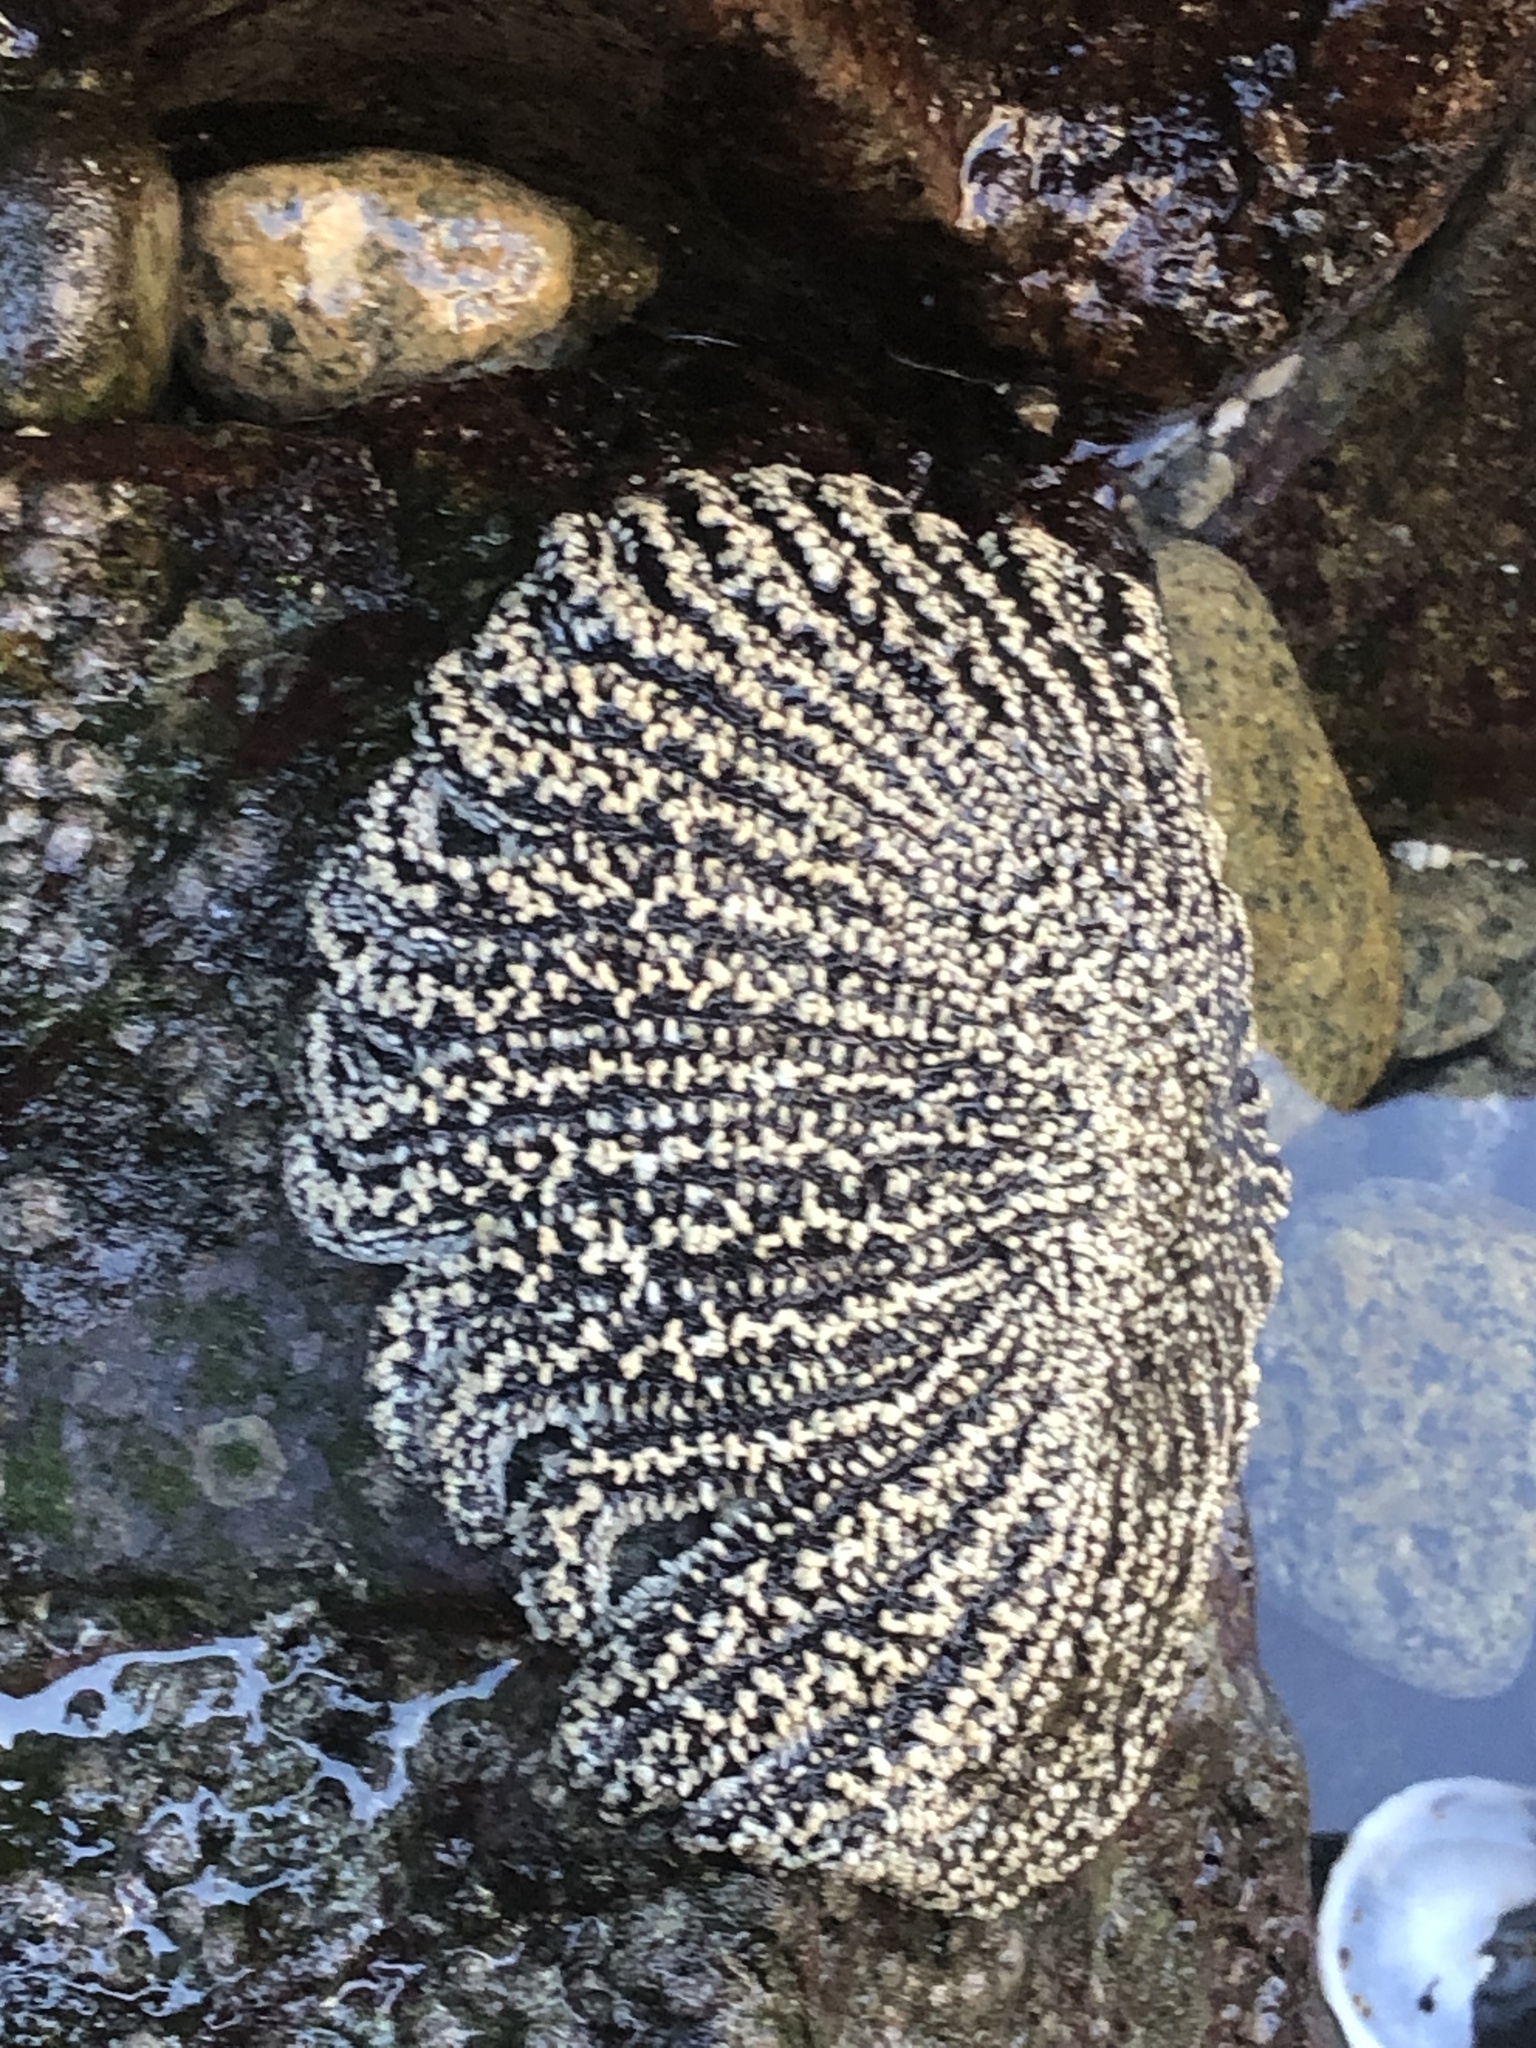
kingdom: Animalia
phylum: Echinodermata
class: Asteroidea
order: Forcipulatida
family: Heliasteridae
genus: Heliaster
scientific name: Heliaster helianthus
